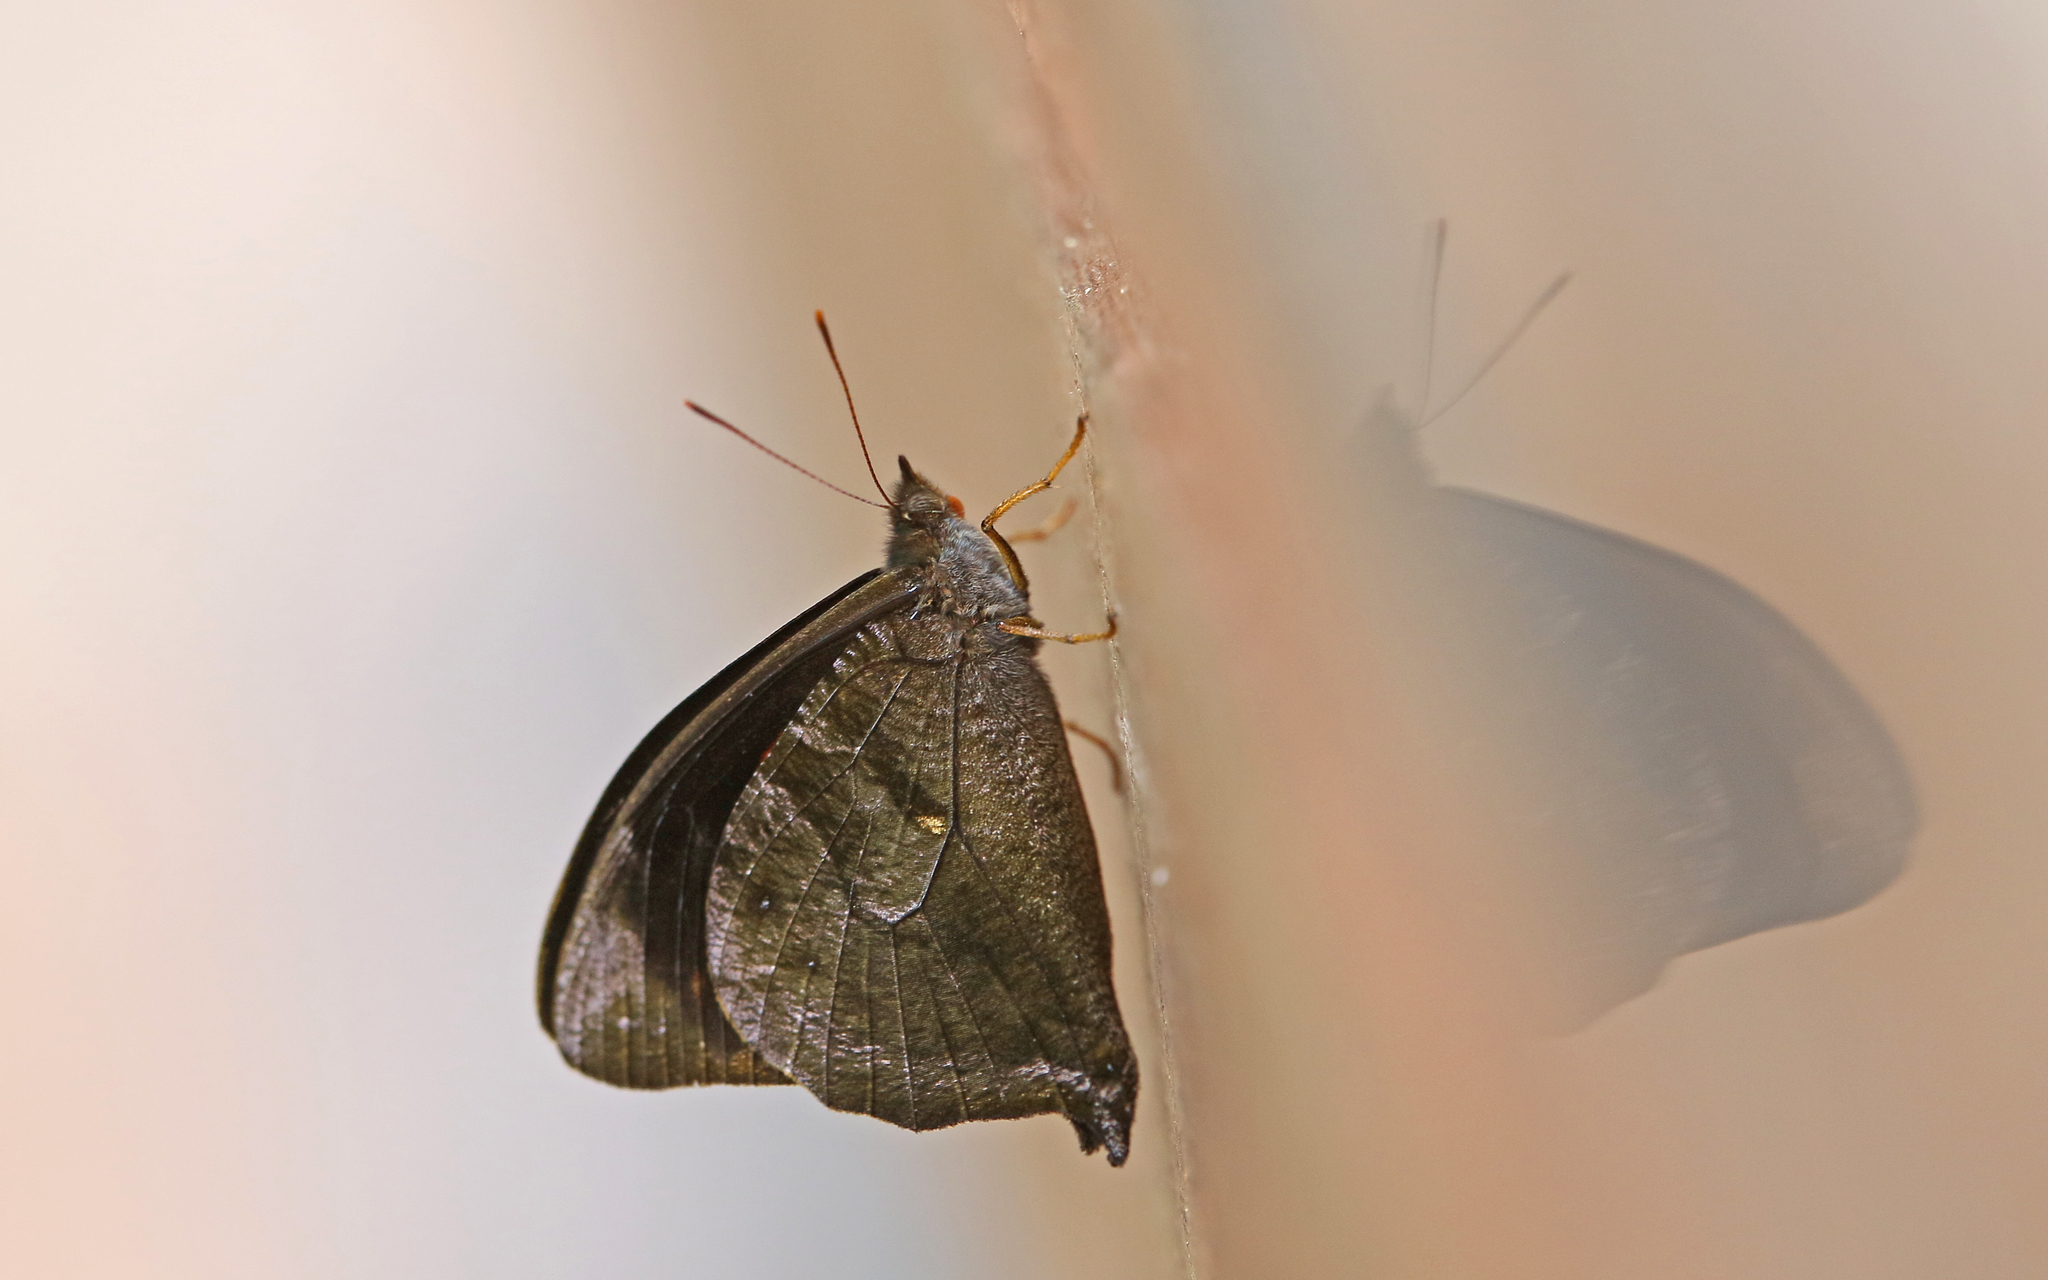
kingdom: Animalia
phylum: Arthropoda
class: Insecta
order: Lepidoptera
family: Nymphalidae
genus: Corades
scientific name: Corades medeba
